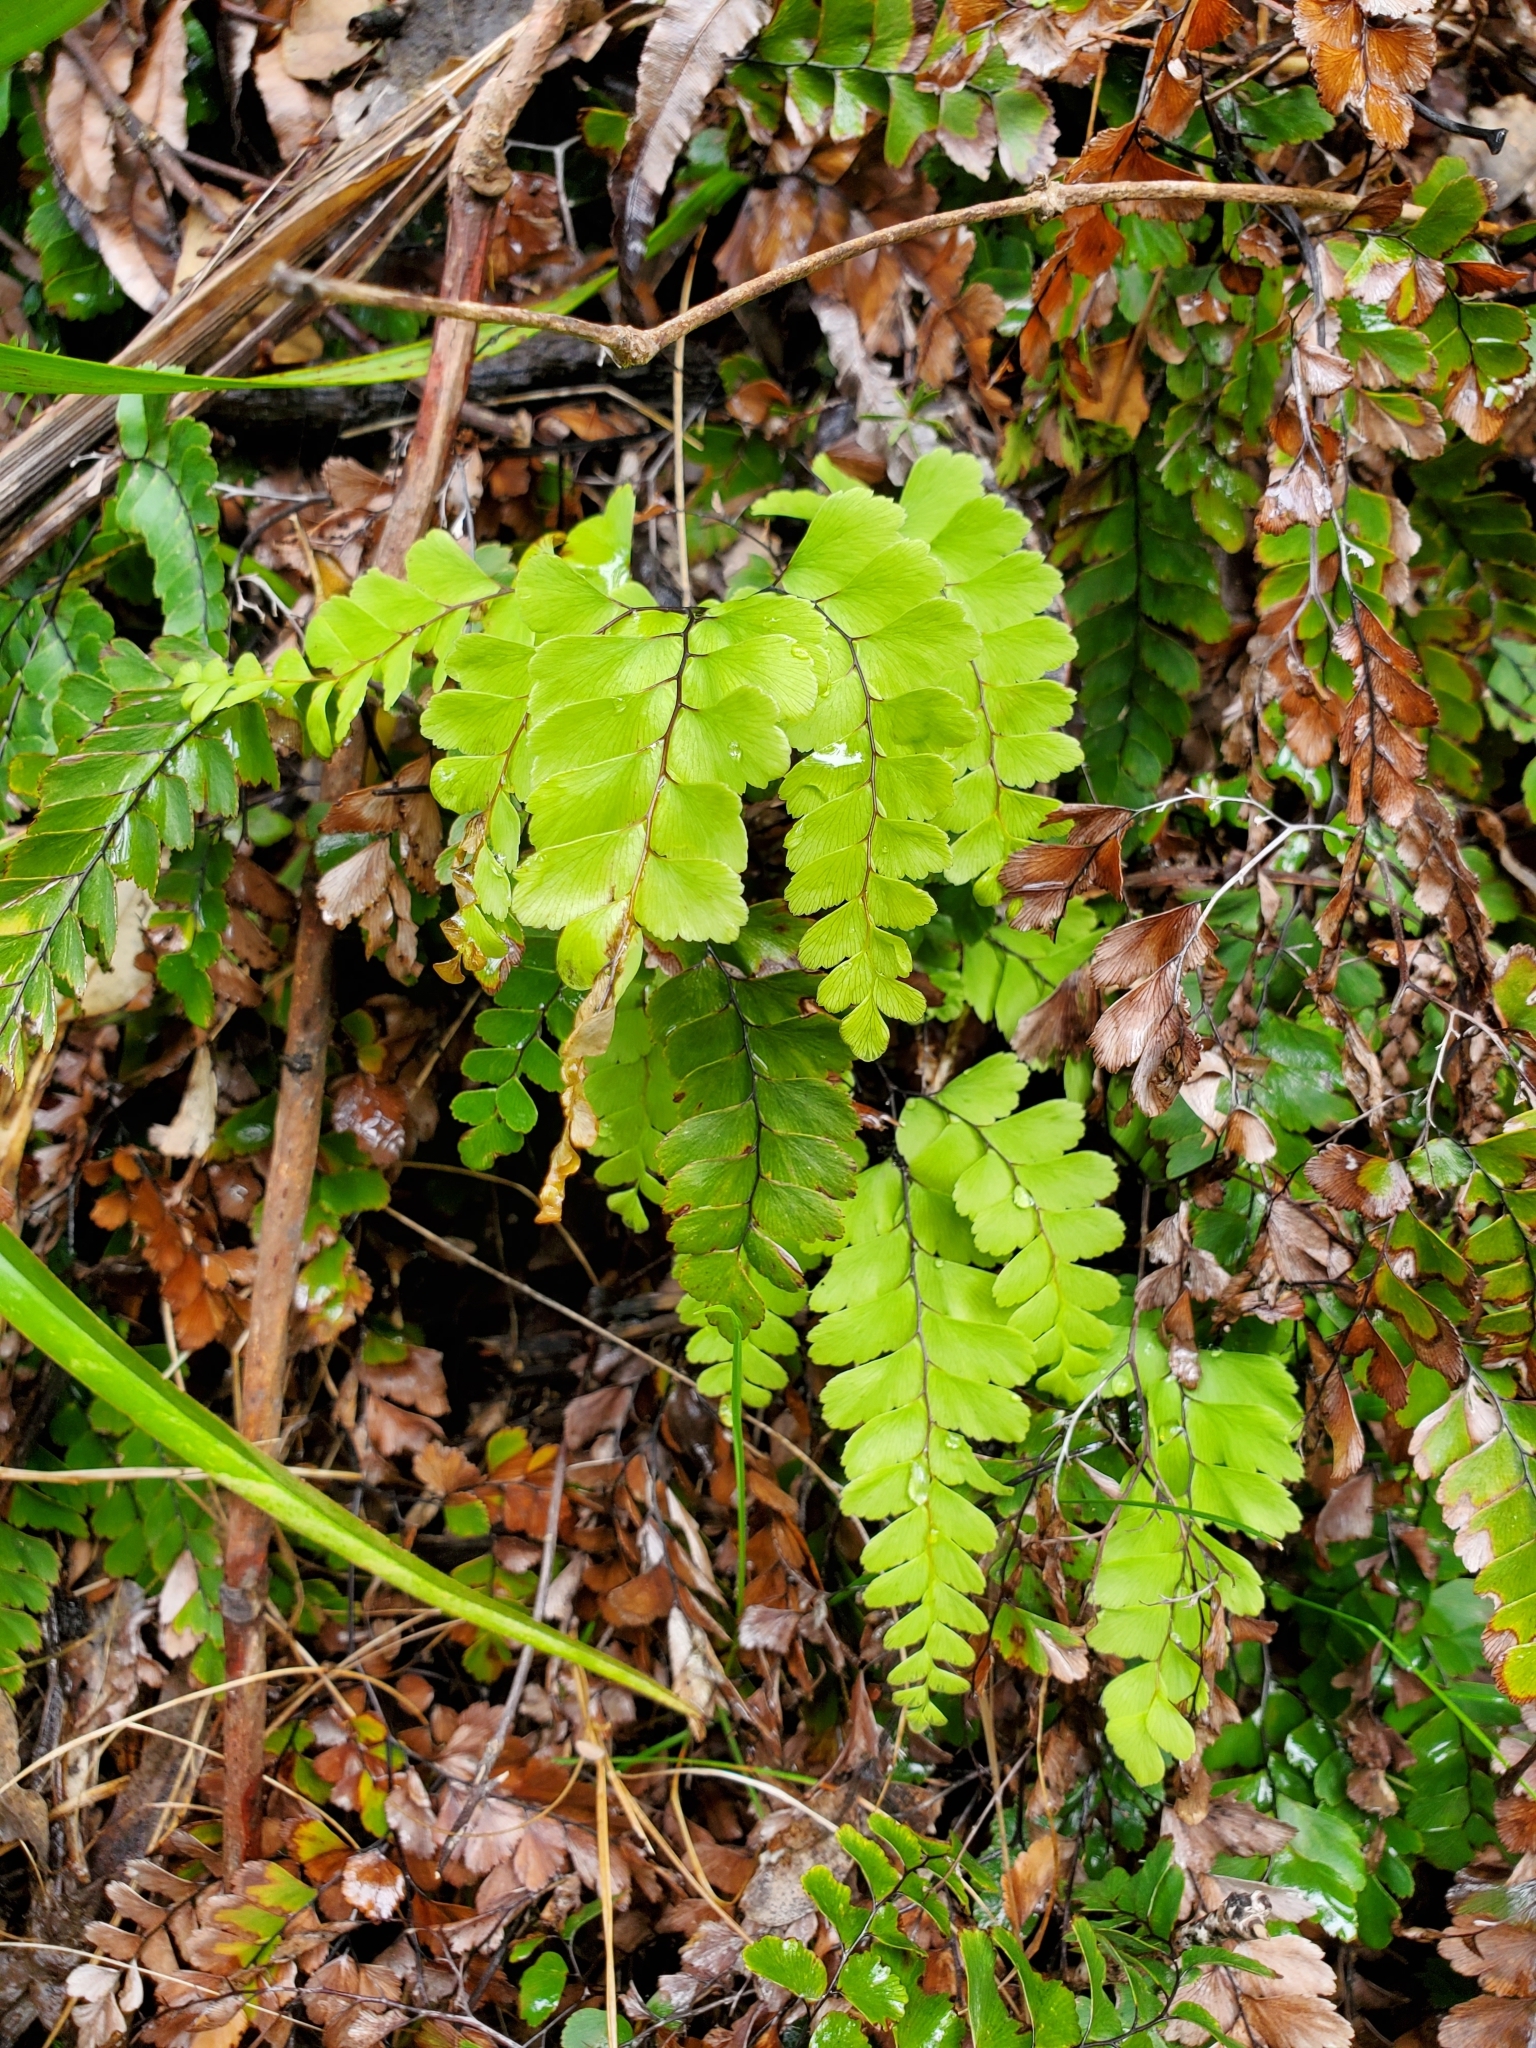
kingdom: Plantae
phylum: Tracheophyta
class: Polypodiopsida
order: Polypodiales
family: Pteridaceae
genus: Adiantum
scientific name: Adiantum cunninghamii
